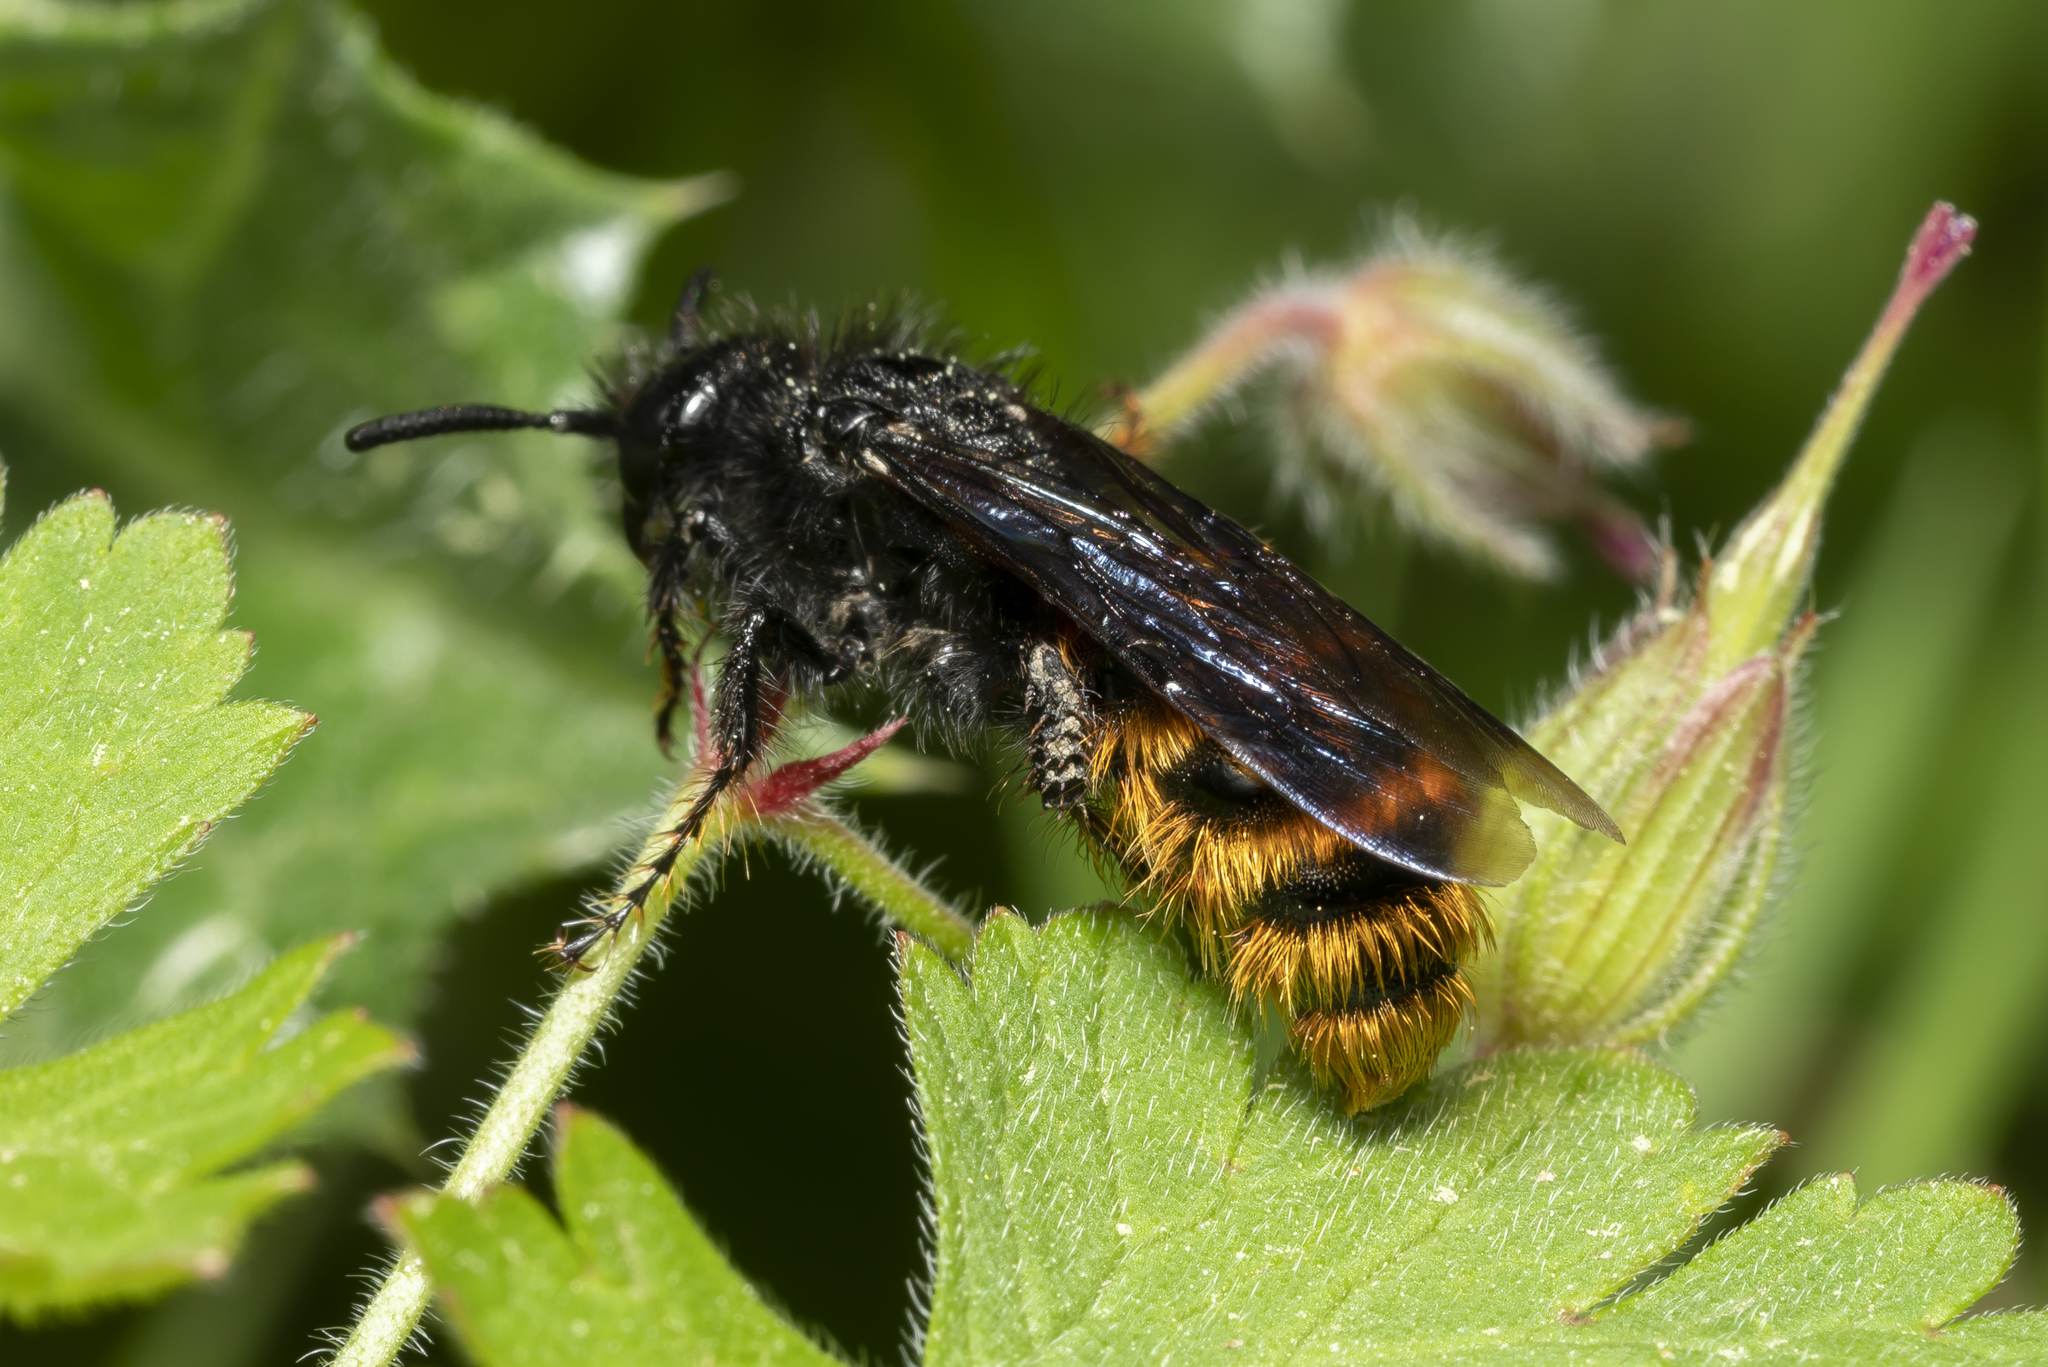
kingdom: Animalia
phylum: Arthropoda
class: Insecta
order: Hymenoptera
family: Scoliidae
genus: Dasyscolia
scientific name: Dasyscolia ciliata
